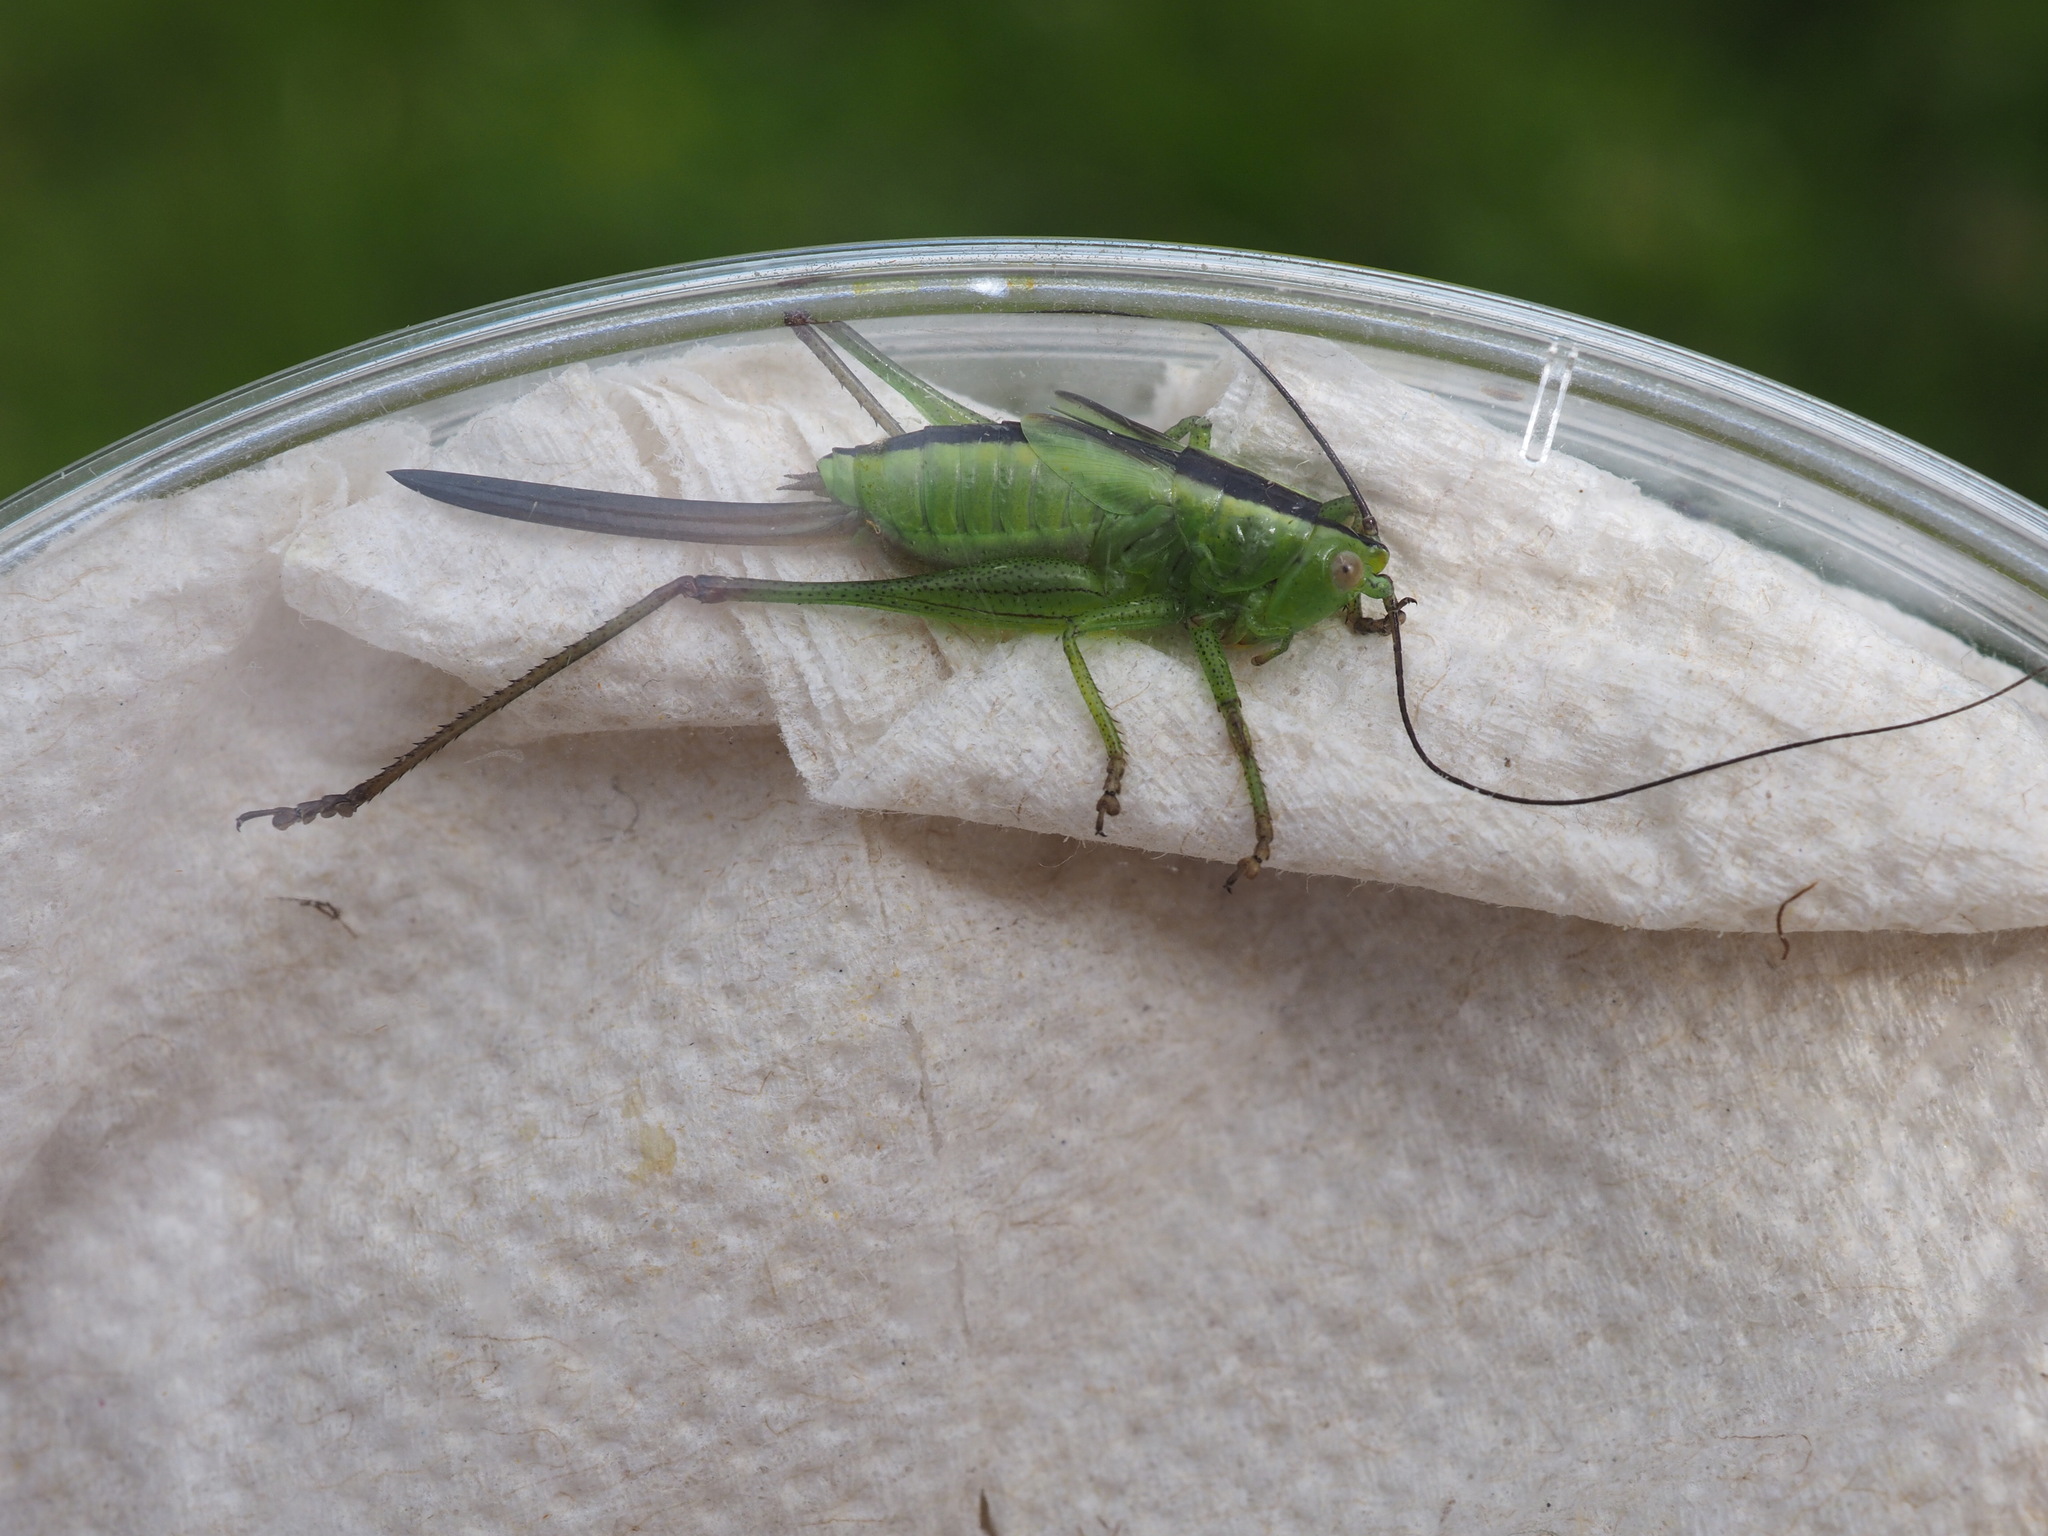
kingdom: Animalia
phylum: Arthropoda
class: Insecta
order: Orthoptera
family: Tettigoniidae
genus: Conocephalus
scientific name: Conocephalus fuscus
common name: Long-winged conehead
